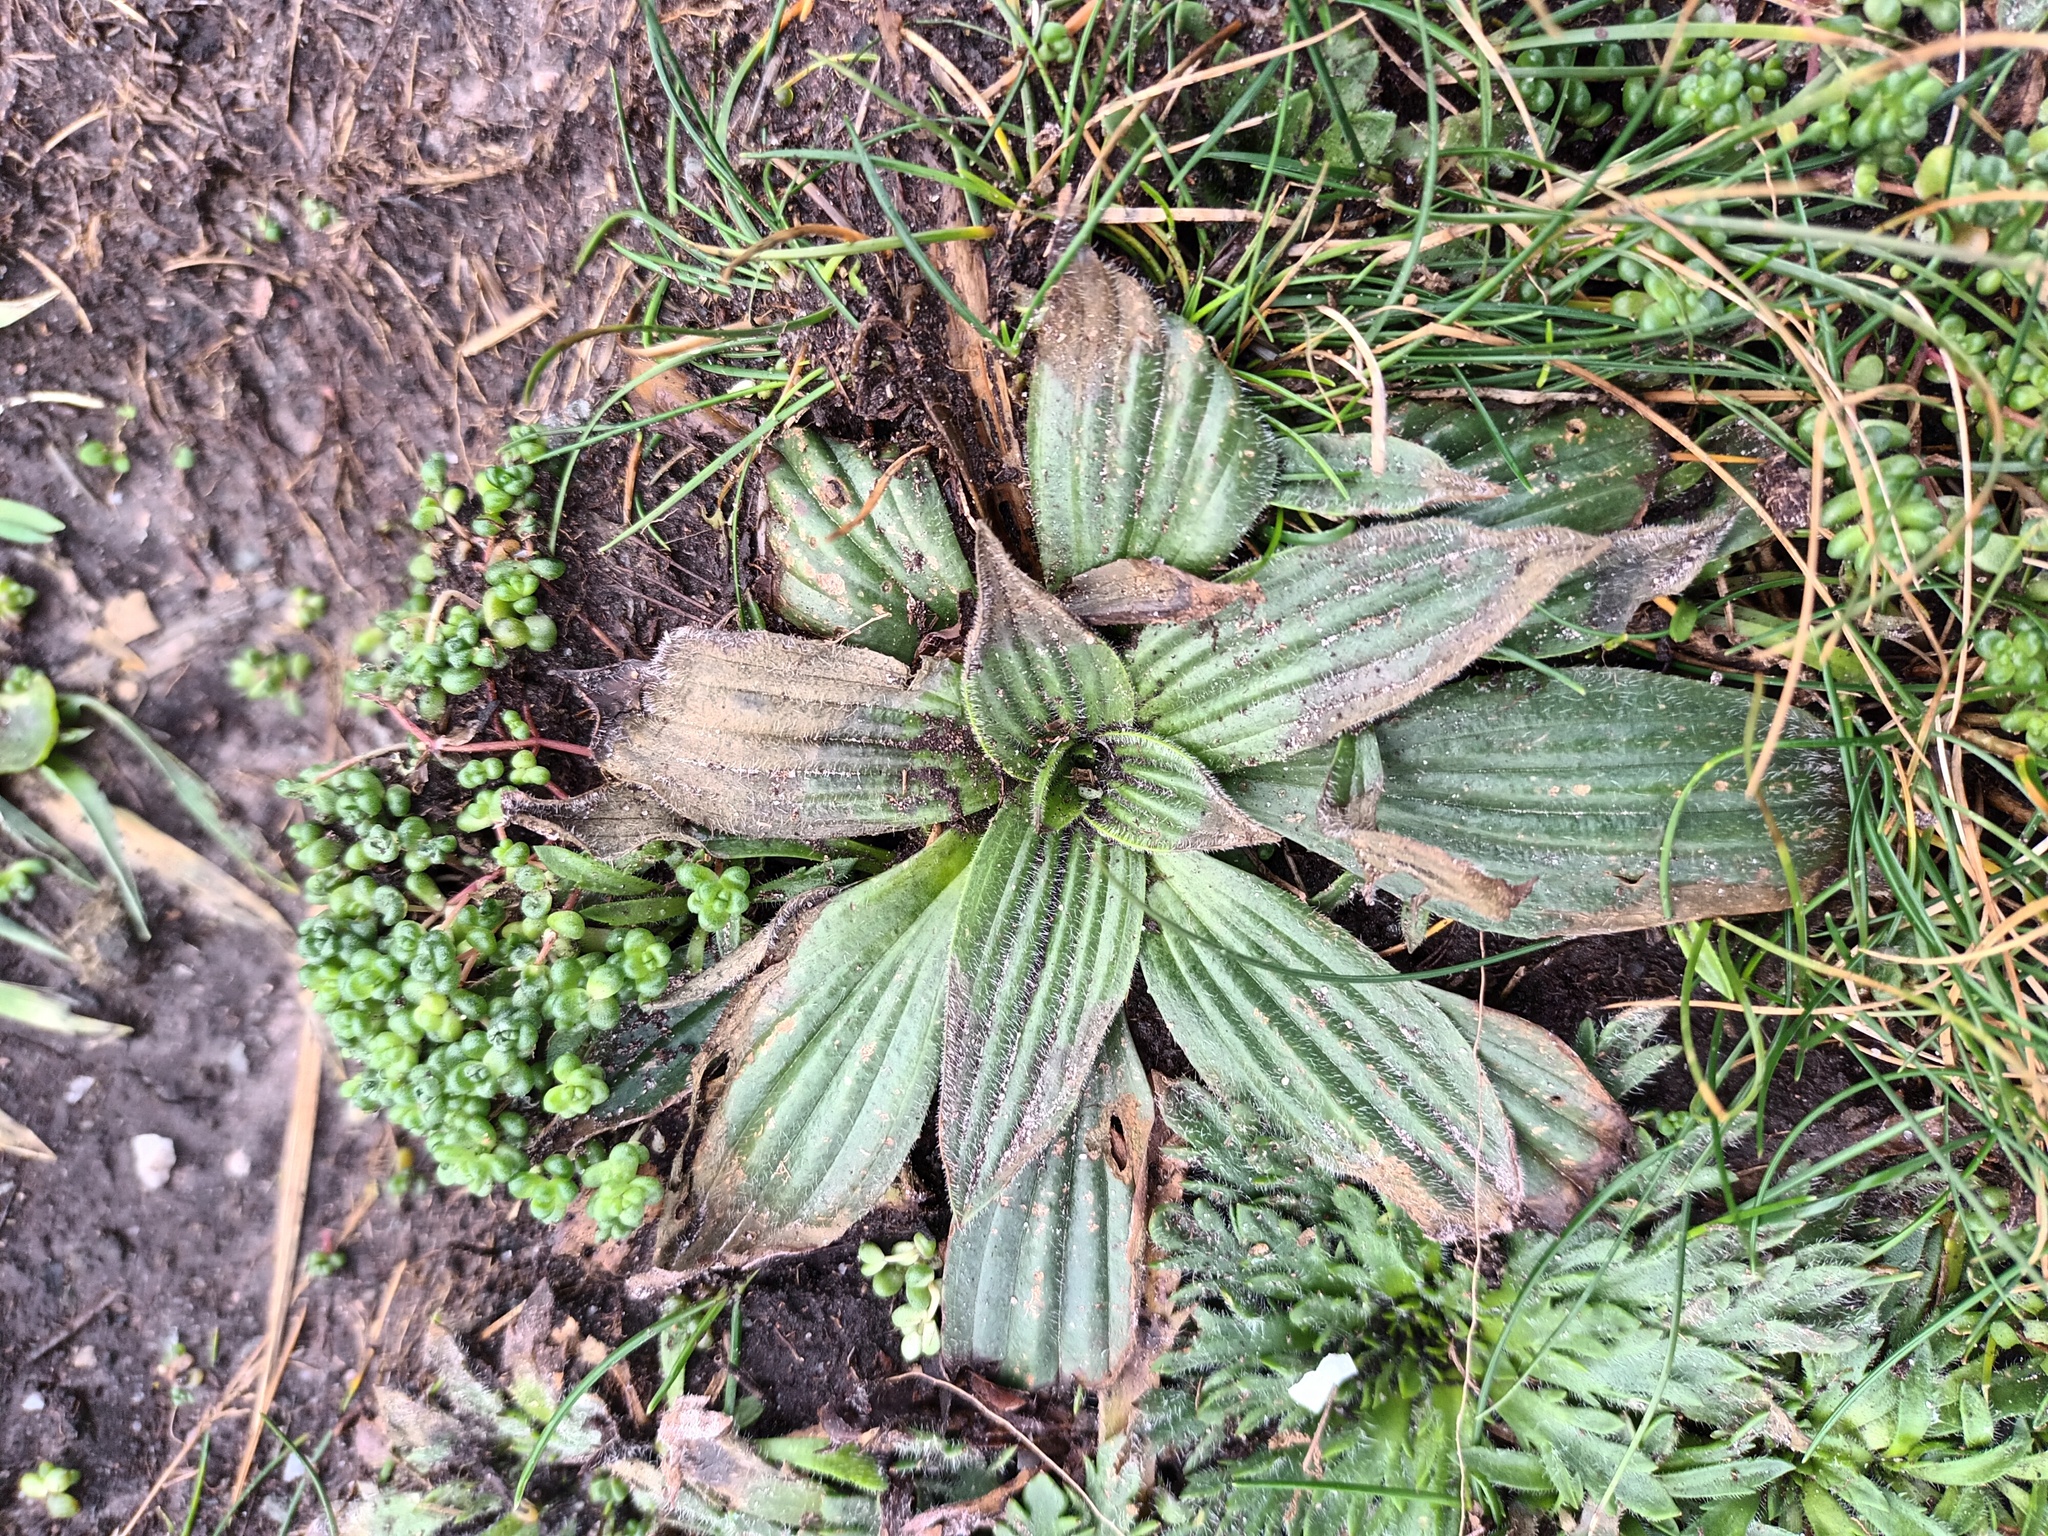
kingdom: Plantae
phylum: Tracheophyta
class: Magnoliopsida
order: Lamiales
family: Plantaginaceae
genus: Plantago
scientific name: Plantago lanceolata
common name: Ribwort plantain
